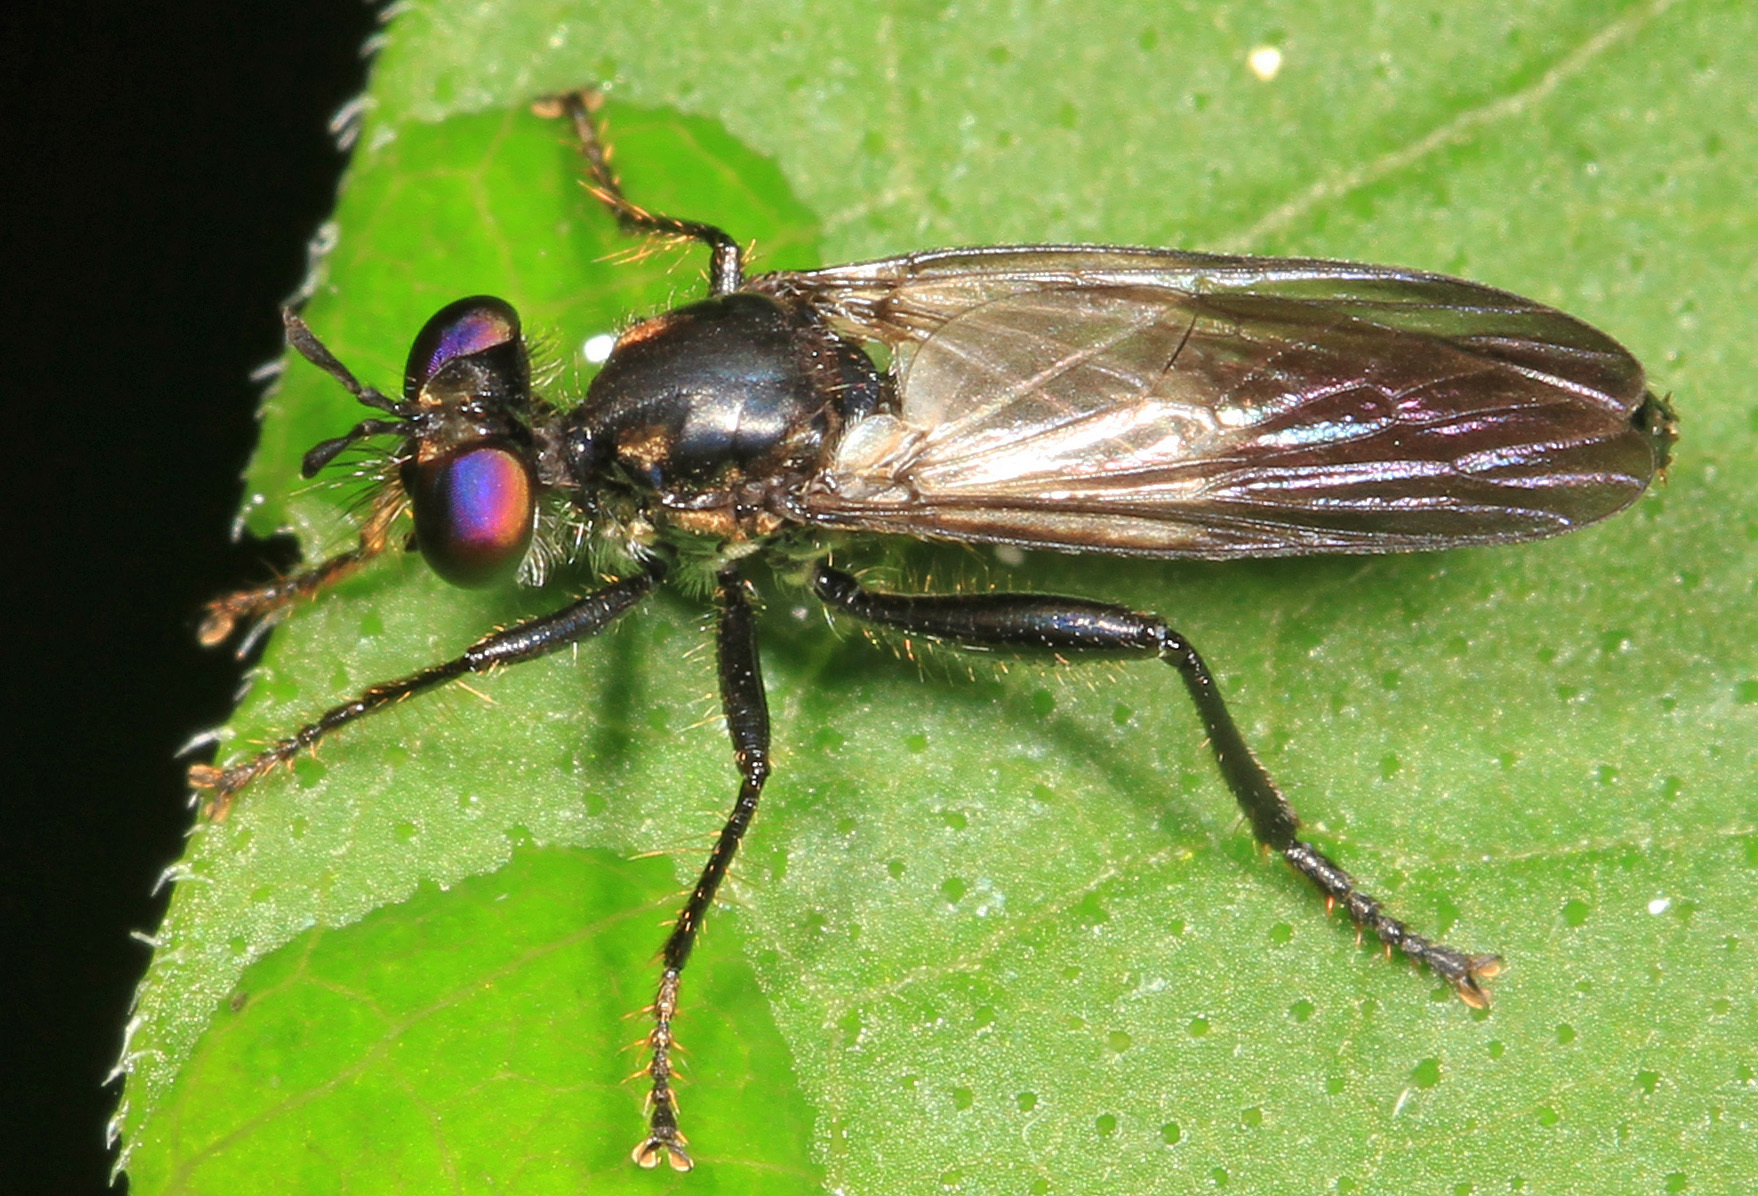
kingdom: Animalia
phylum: Arthropoda
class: Insecta
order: Diptera
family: Asilidae
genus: Eudioctria
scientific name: Eudioctria albius
